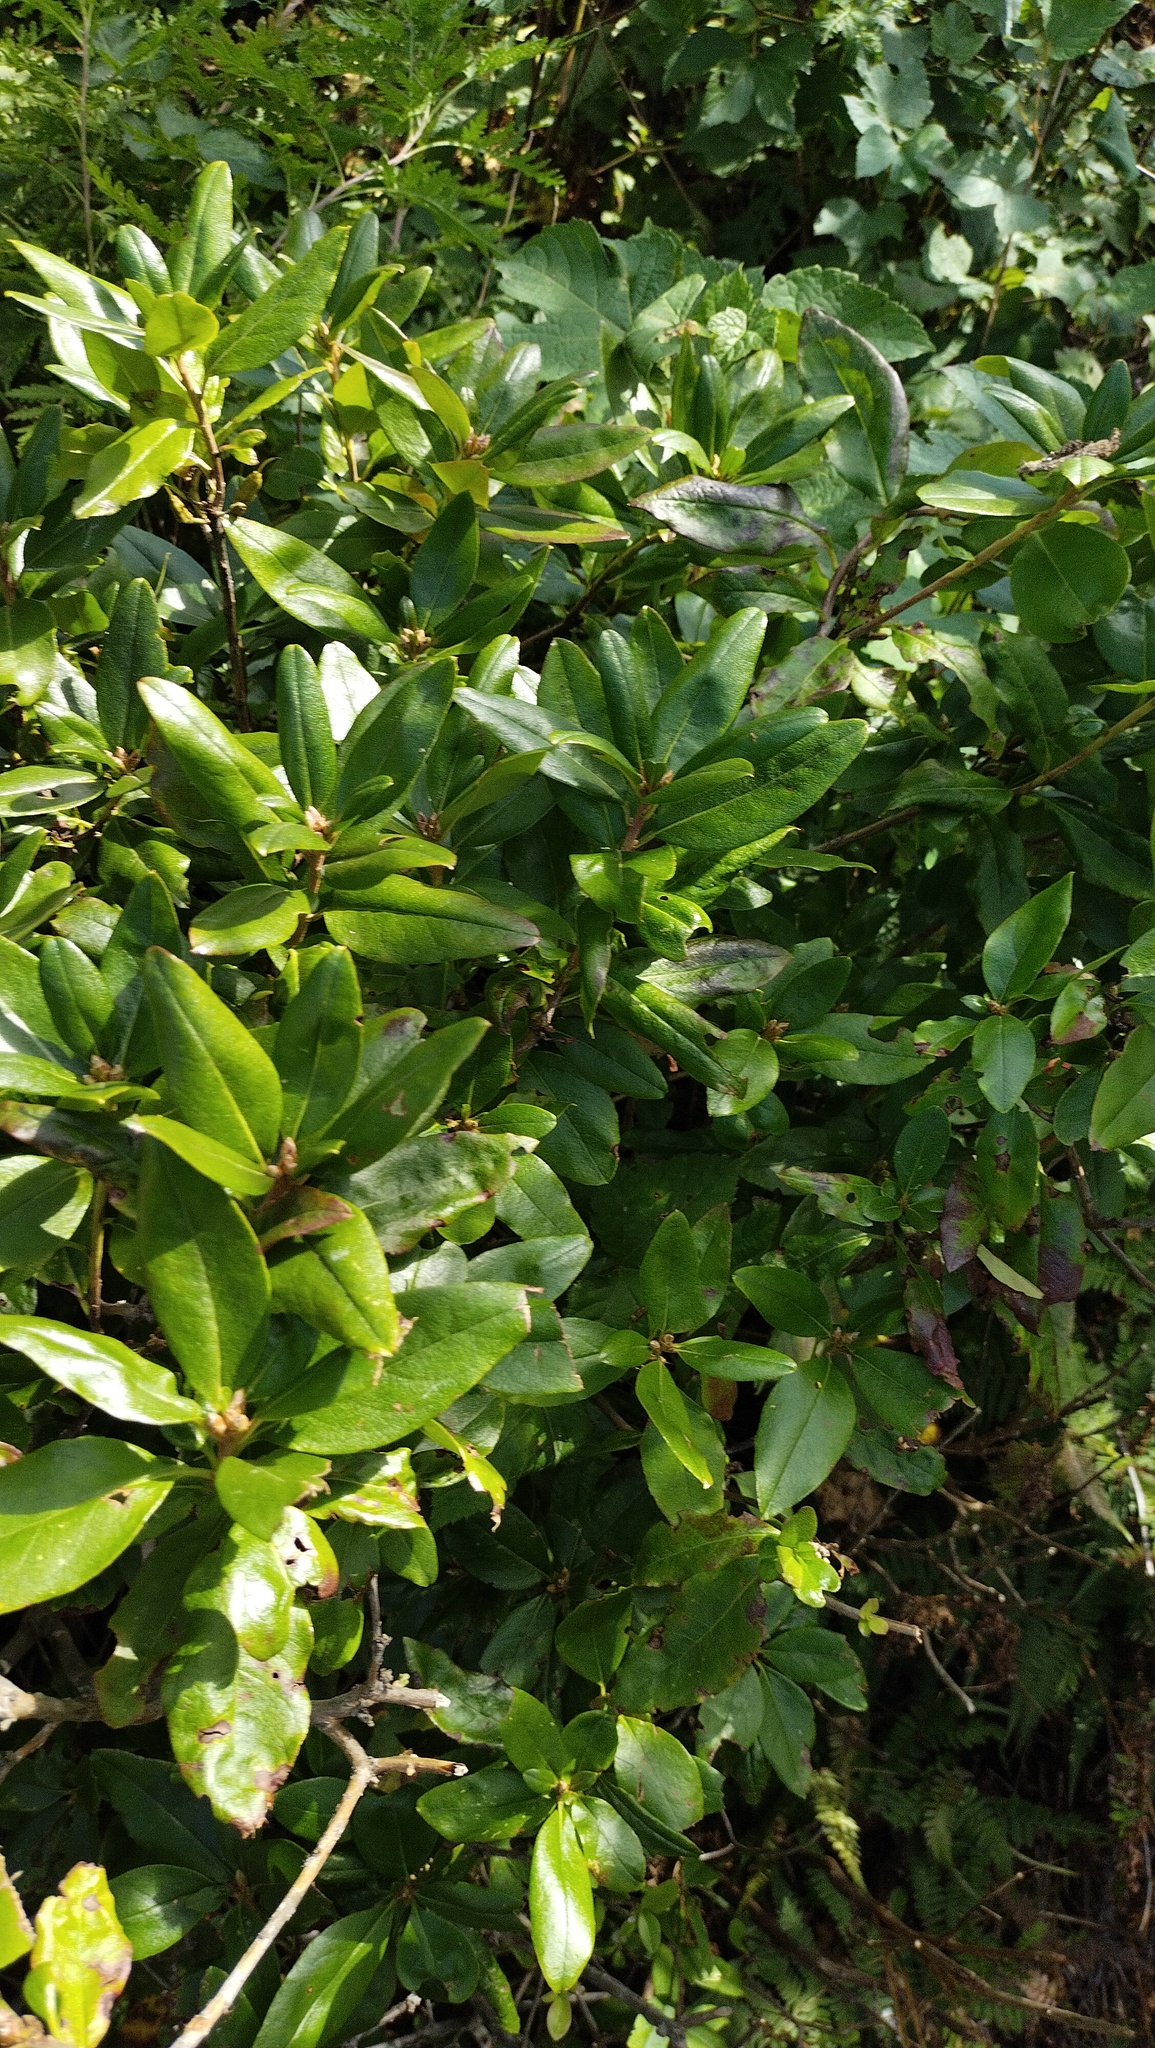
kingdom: Plantae
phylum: Tracheophyta
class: Magnoliopsida
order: Ericales
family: Ericaceae
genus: Rhododendron
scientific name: Rhododendron mucronulatum
